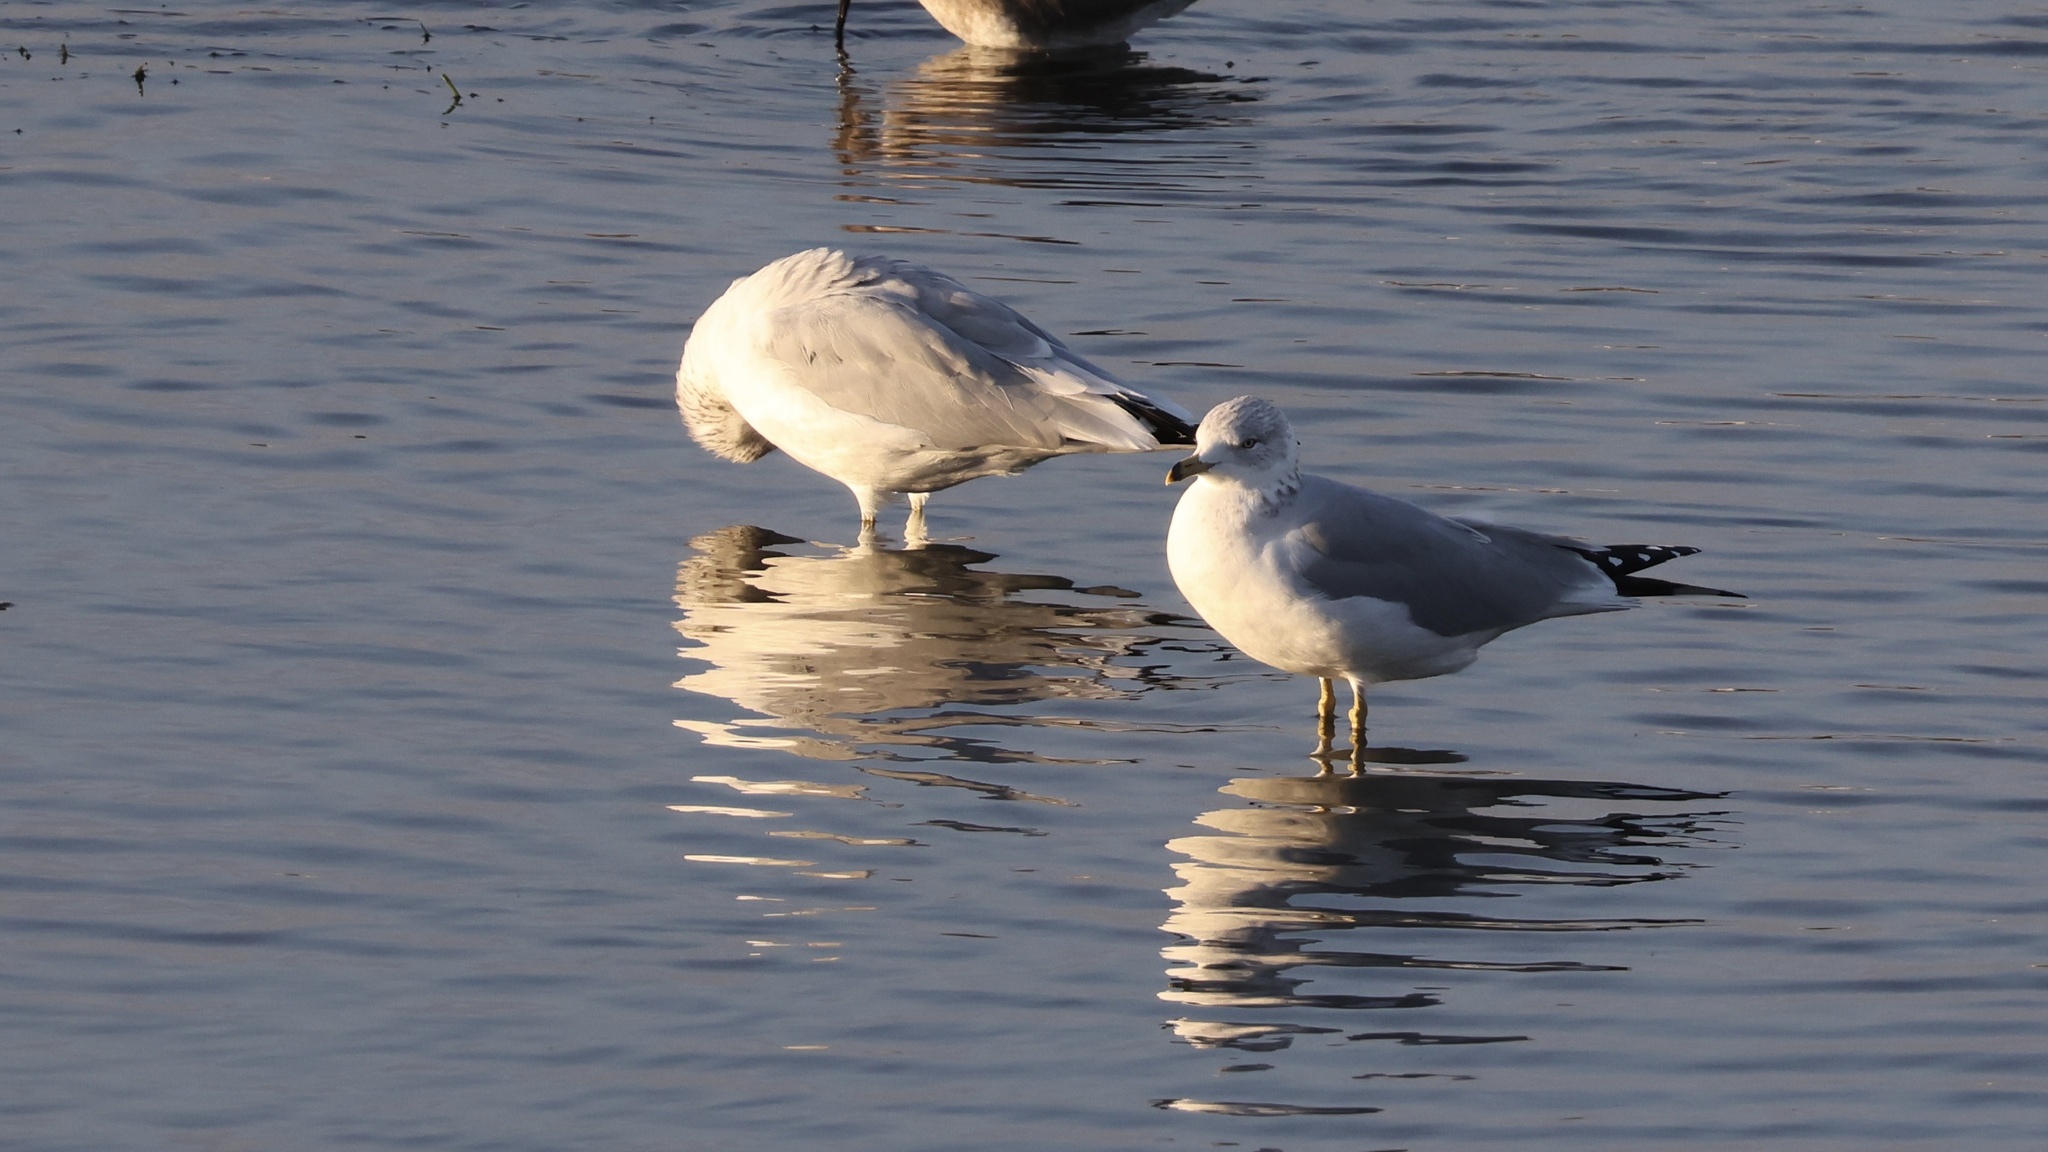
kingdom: Animalia
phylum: Chordata
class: Aves
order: Charadriiformes
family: Laridae
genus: Larus
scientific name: Larus delawarensis
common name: Ring-billed gull
